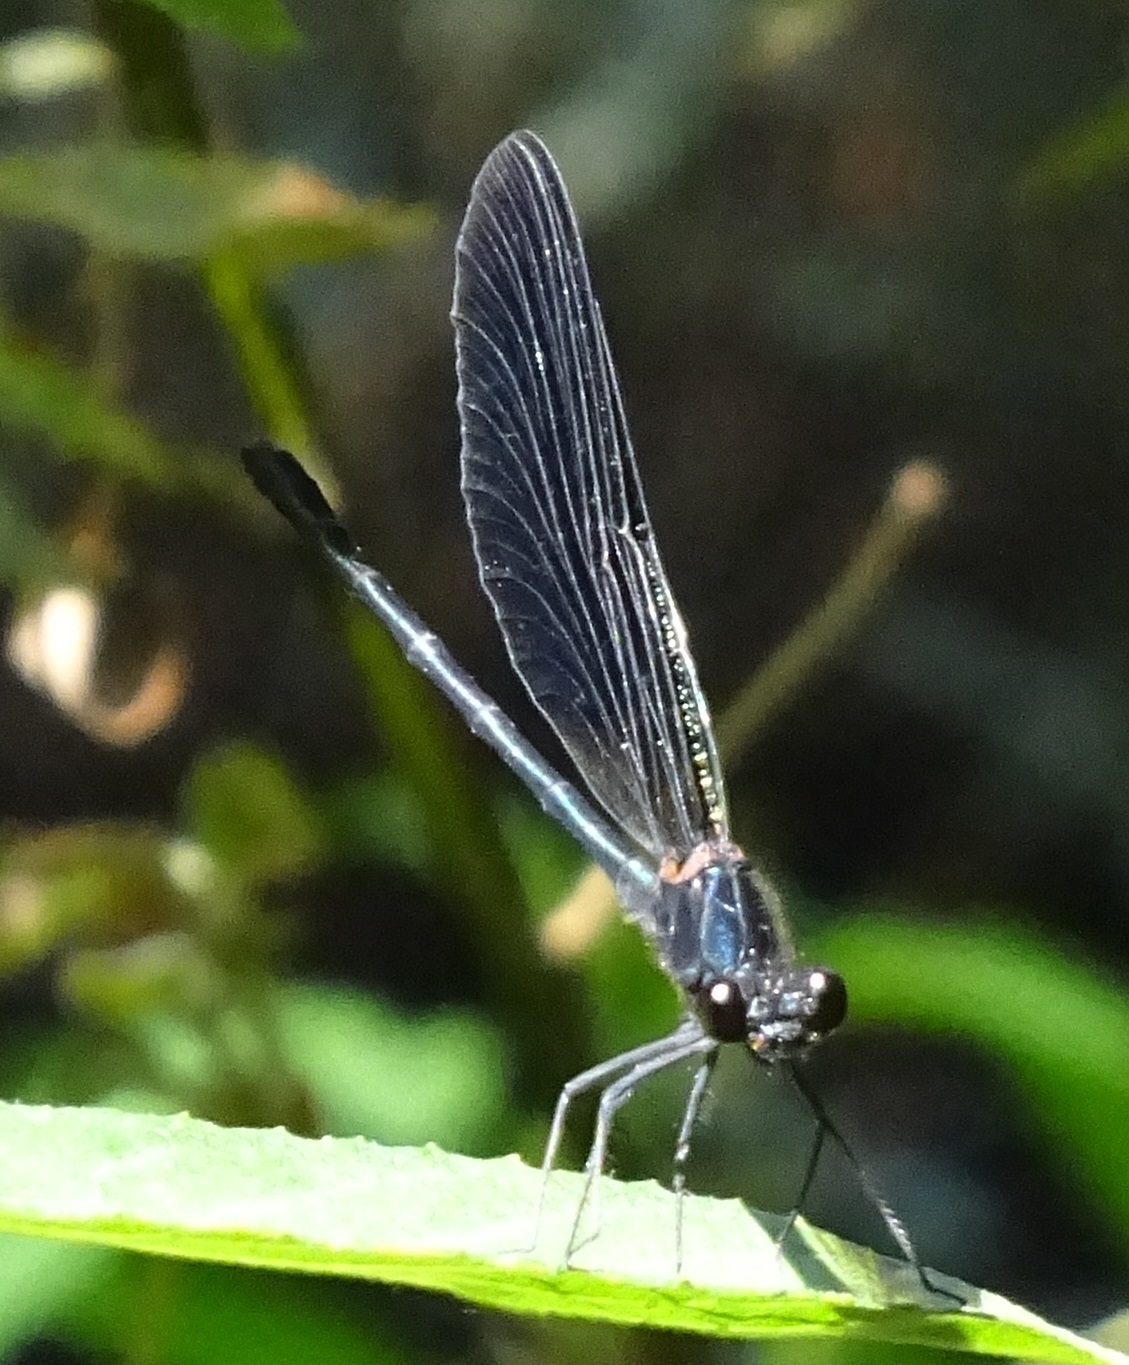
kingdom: Animalia
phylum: Arthropoda
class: Insecta
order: Odonata
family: Calopterygidae
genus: Calopteryx
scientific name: Calopteryx haemorrhoidalis
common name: Copper demoiselle
